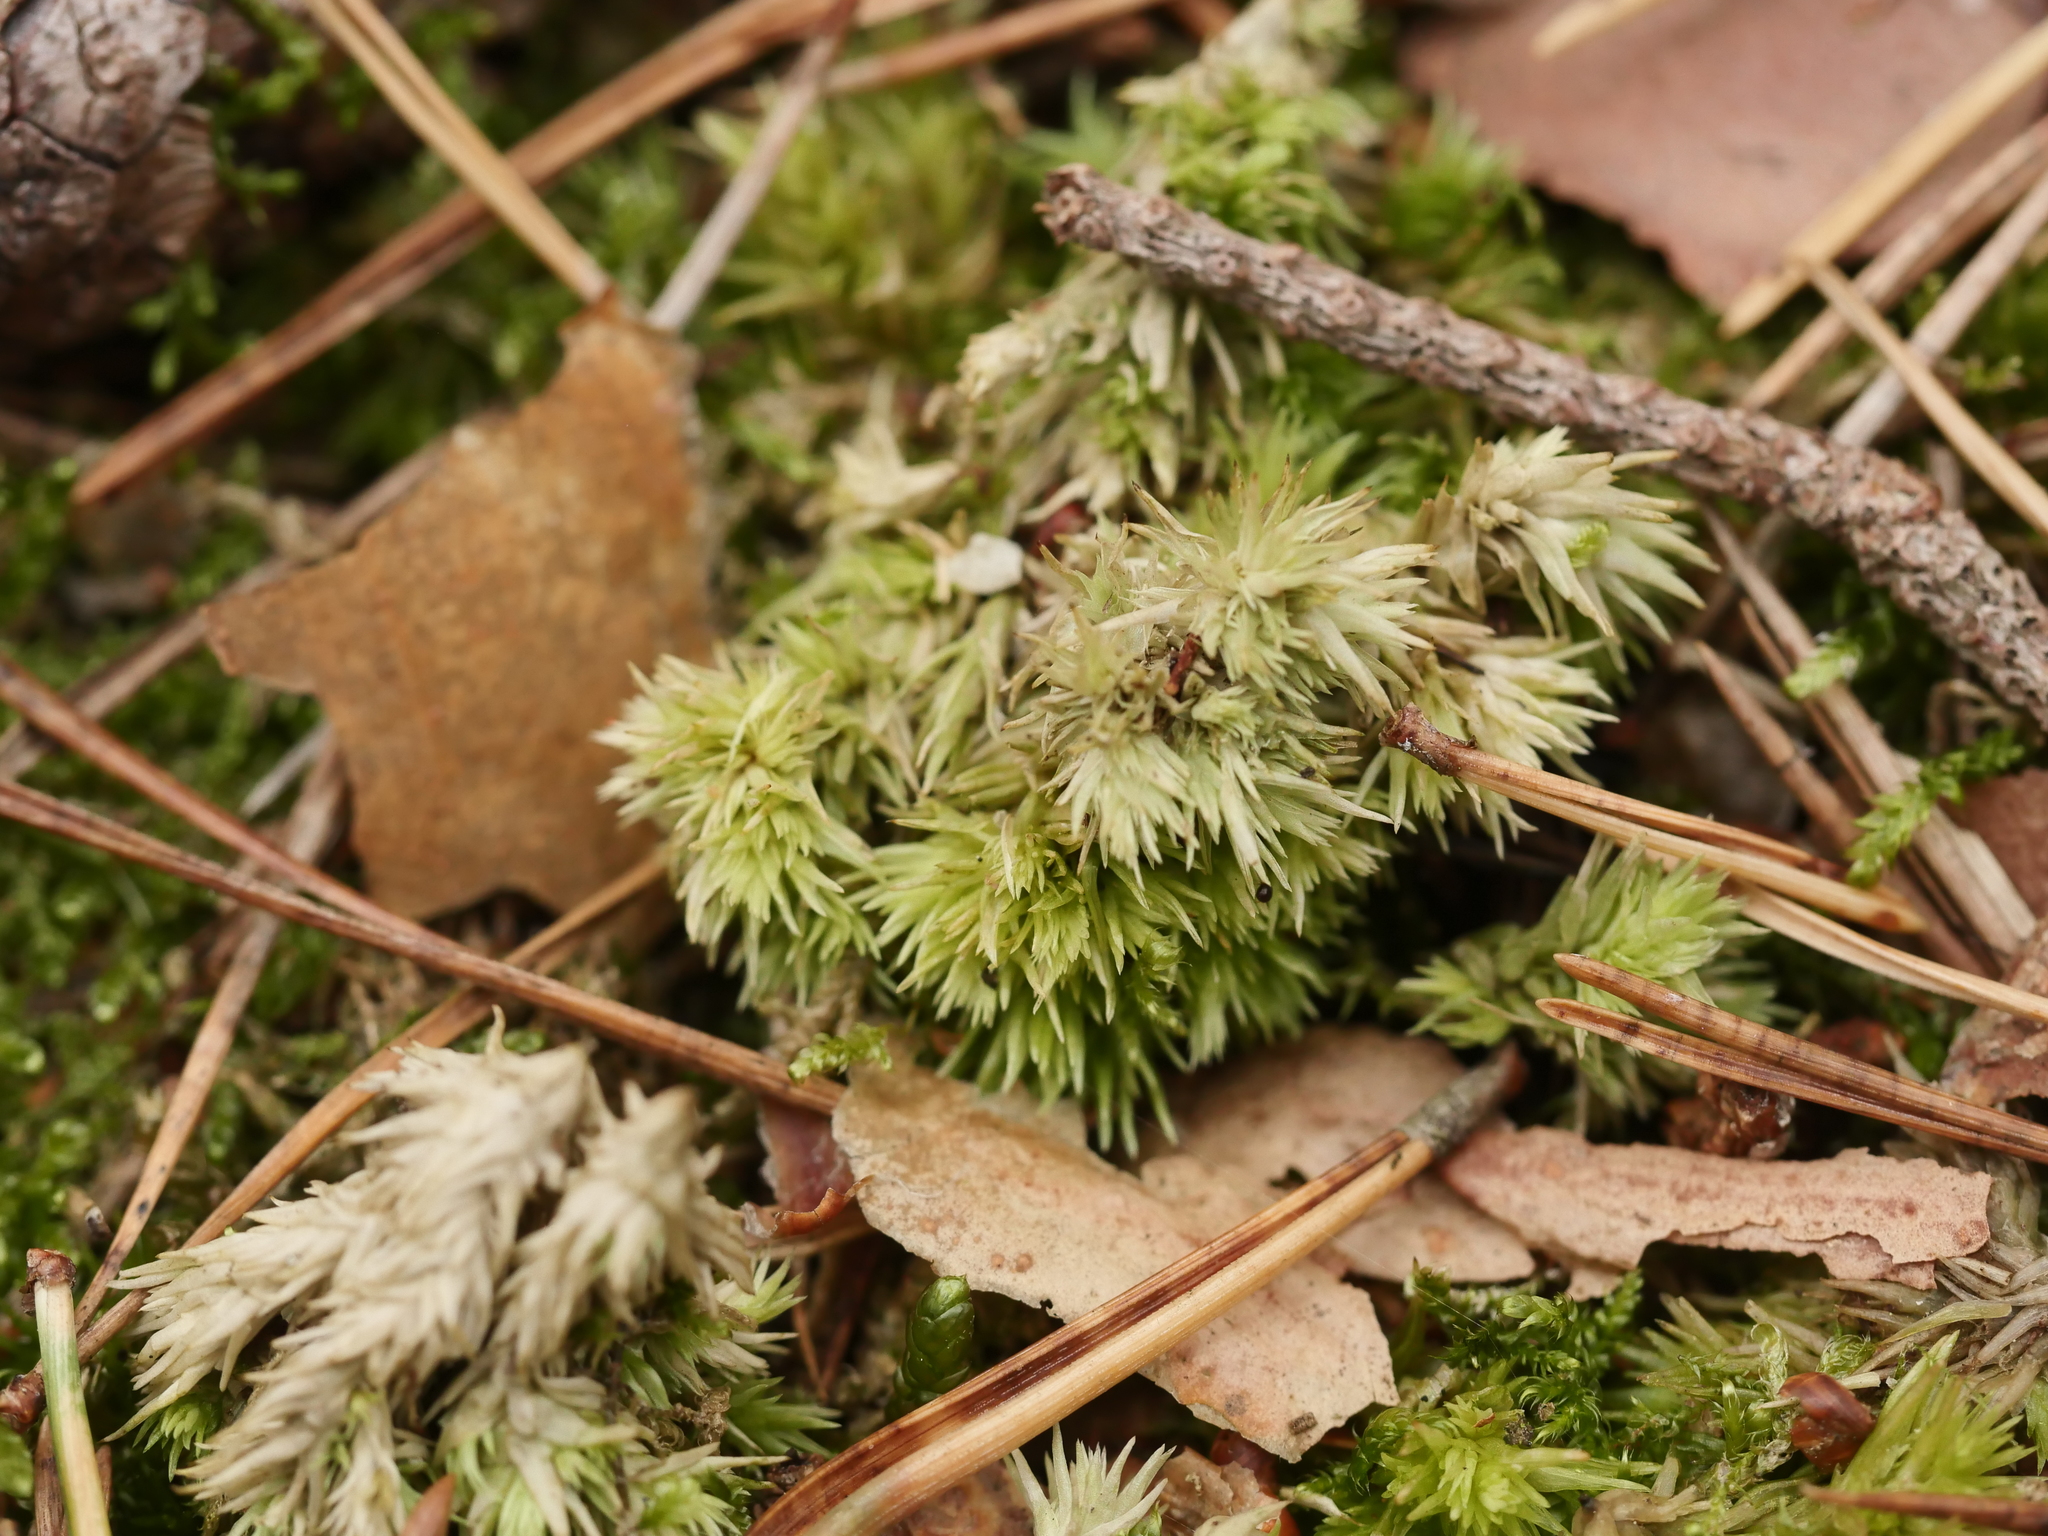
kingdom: Plantae
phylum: Bryophyta
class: Bryopsida
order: Dicranales
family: Leucobryaceae
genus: Leucobryum
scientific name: Leucobryum glaucum
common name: Large white-moss
